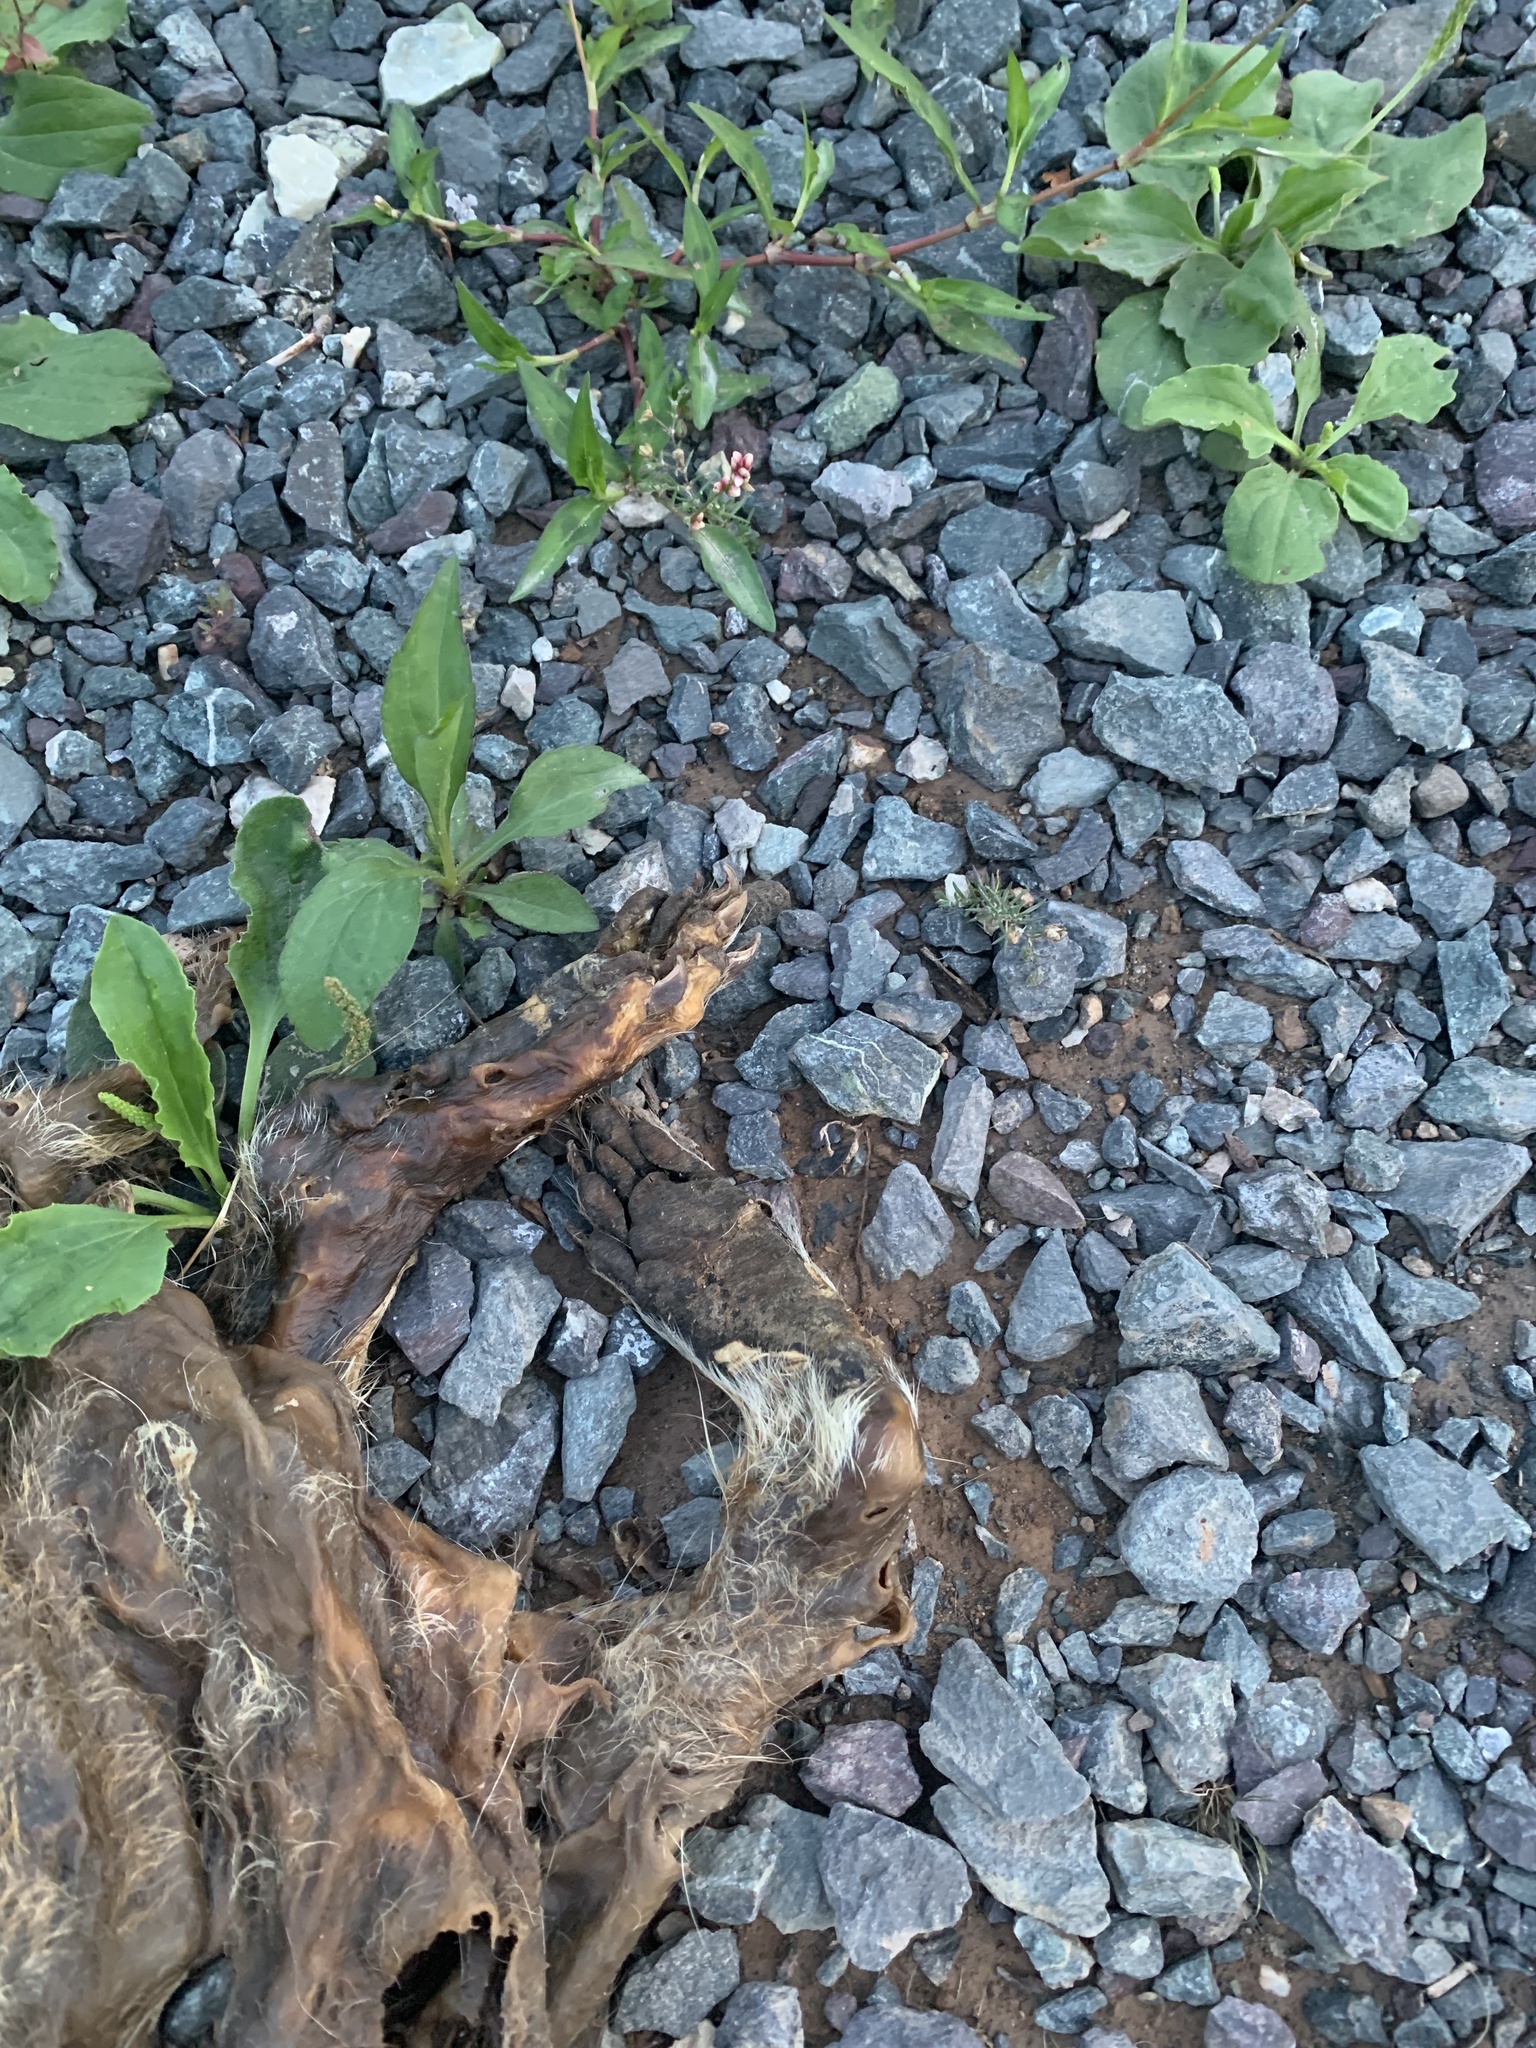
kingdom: Animalia
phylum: Chordata
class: Mammalia
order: Carnivora
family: Procyonidae
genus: Procyon
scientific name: Procyon lotor
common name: Raccoon
